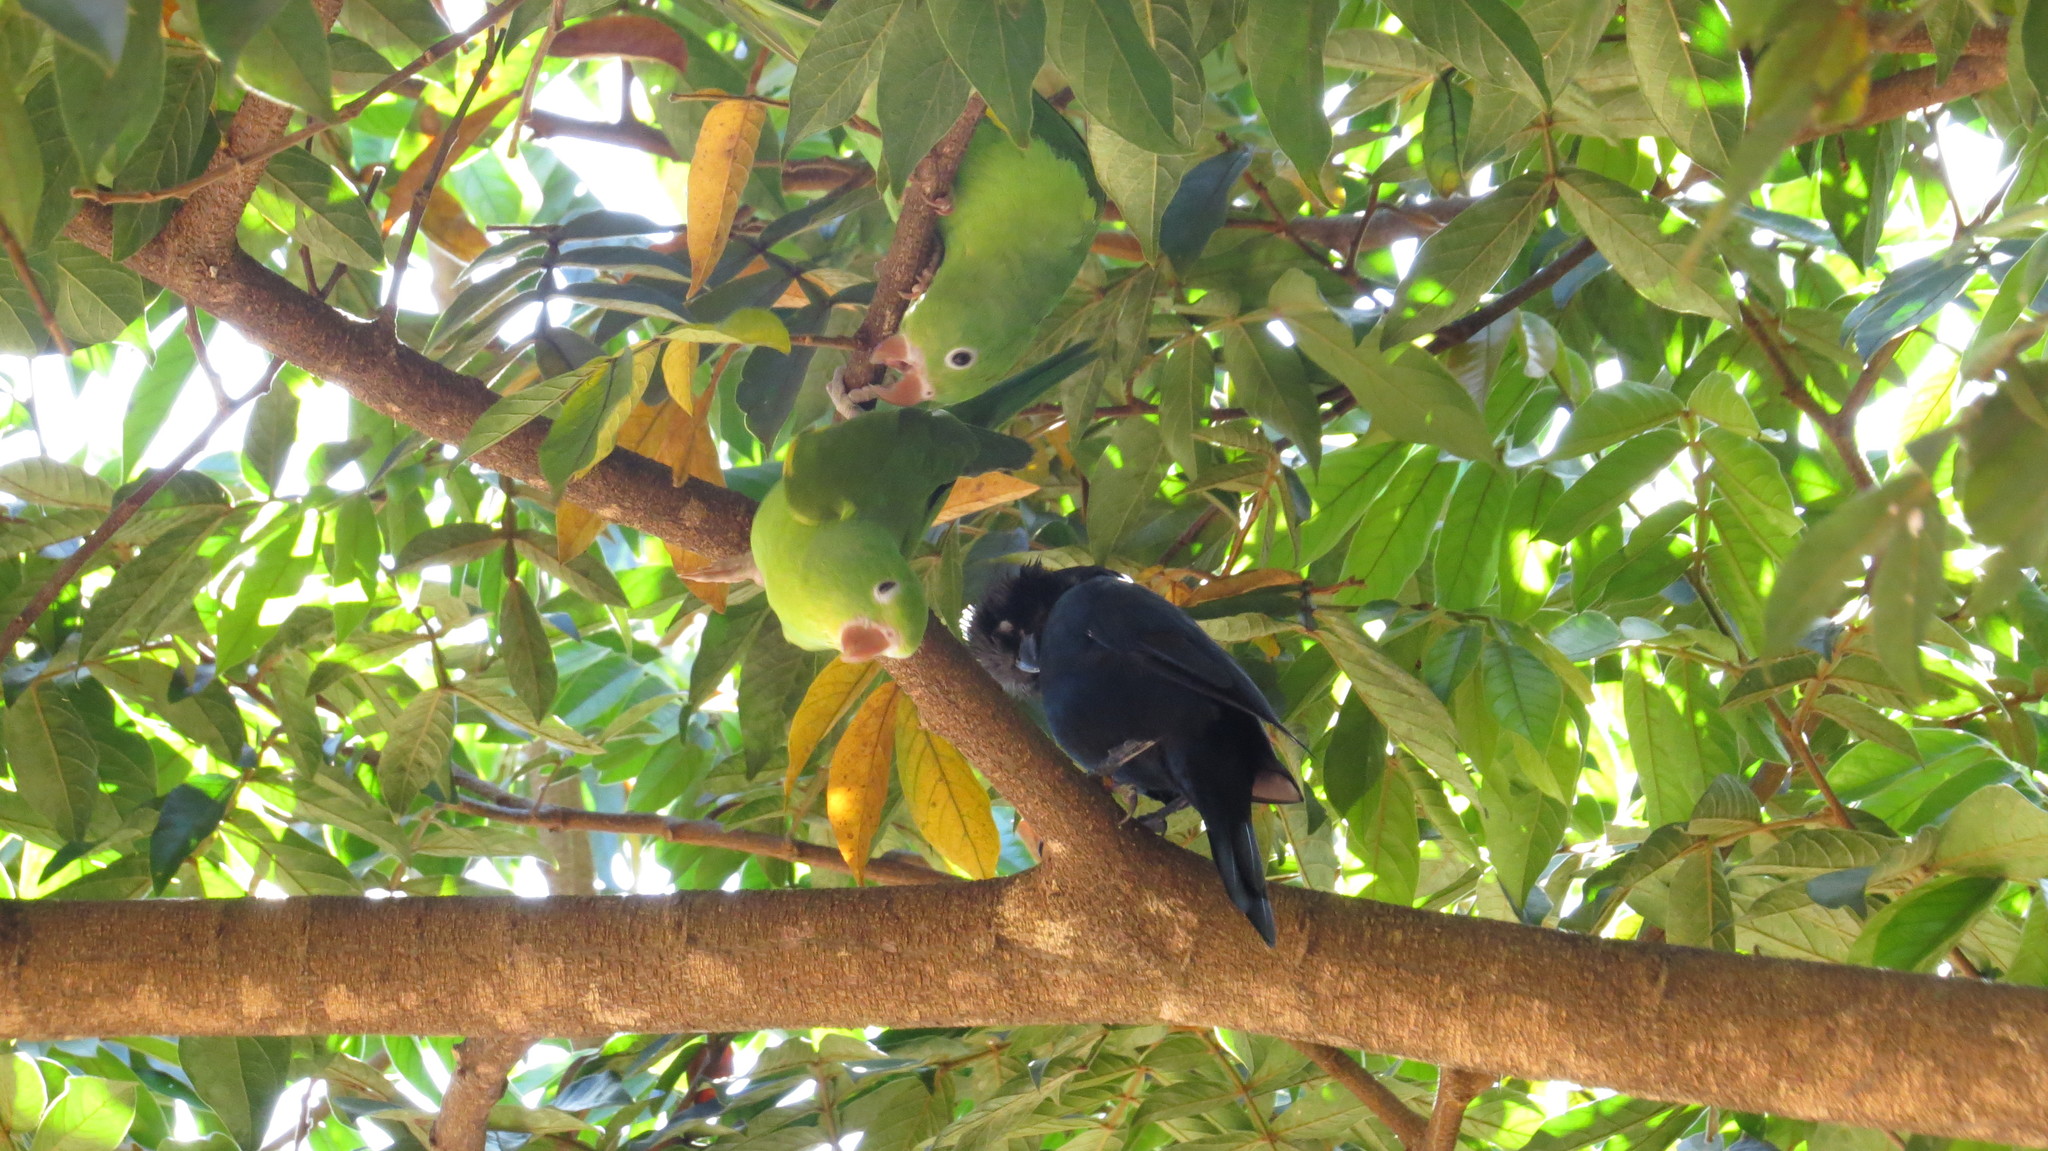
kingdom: Animalia
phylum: Chordata
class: Aves
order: Psittaciformes
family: Psittacidae
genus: Brotogeris
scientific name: Brotogeris chiriri
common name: Yellow-chevroned parakeet
